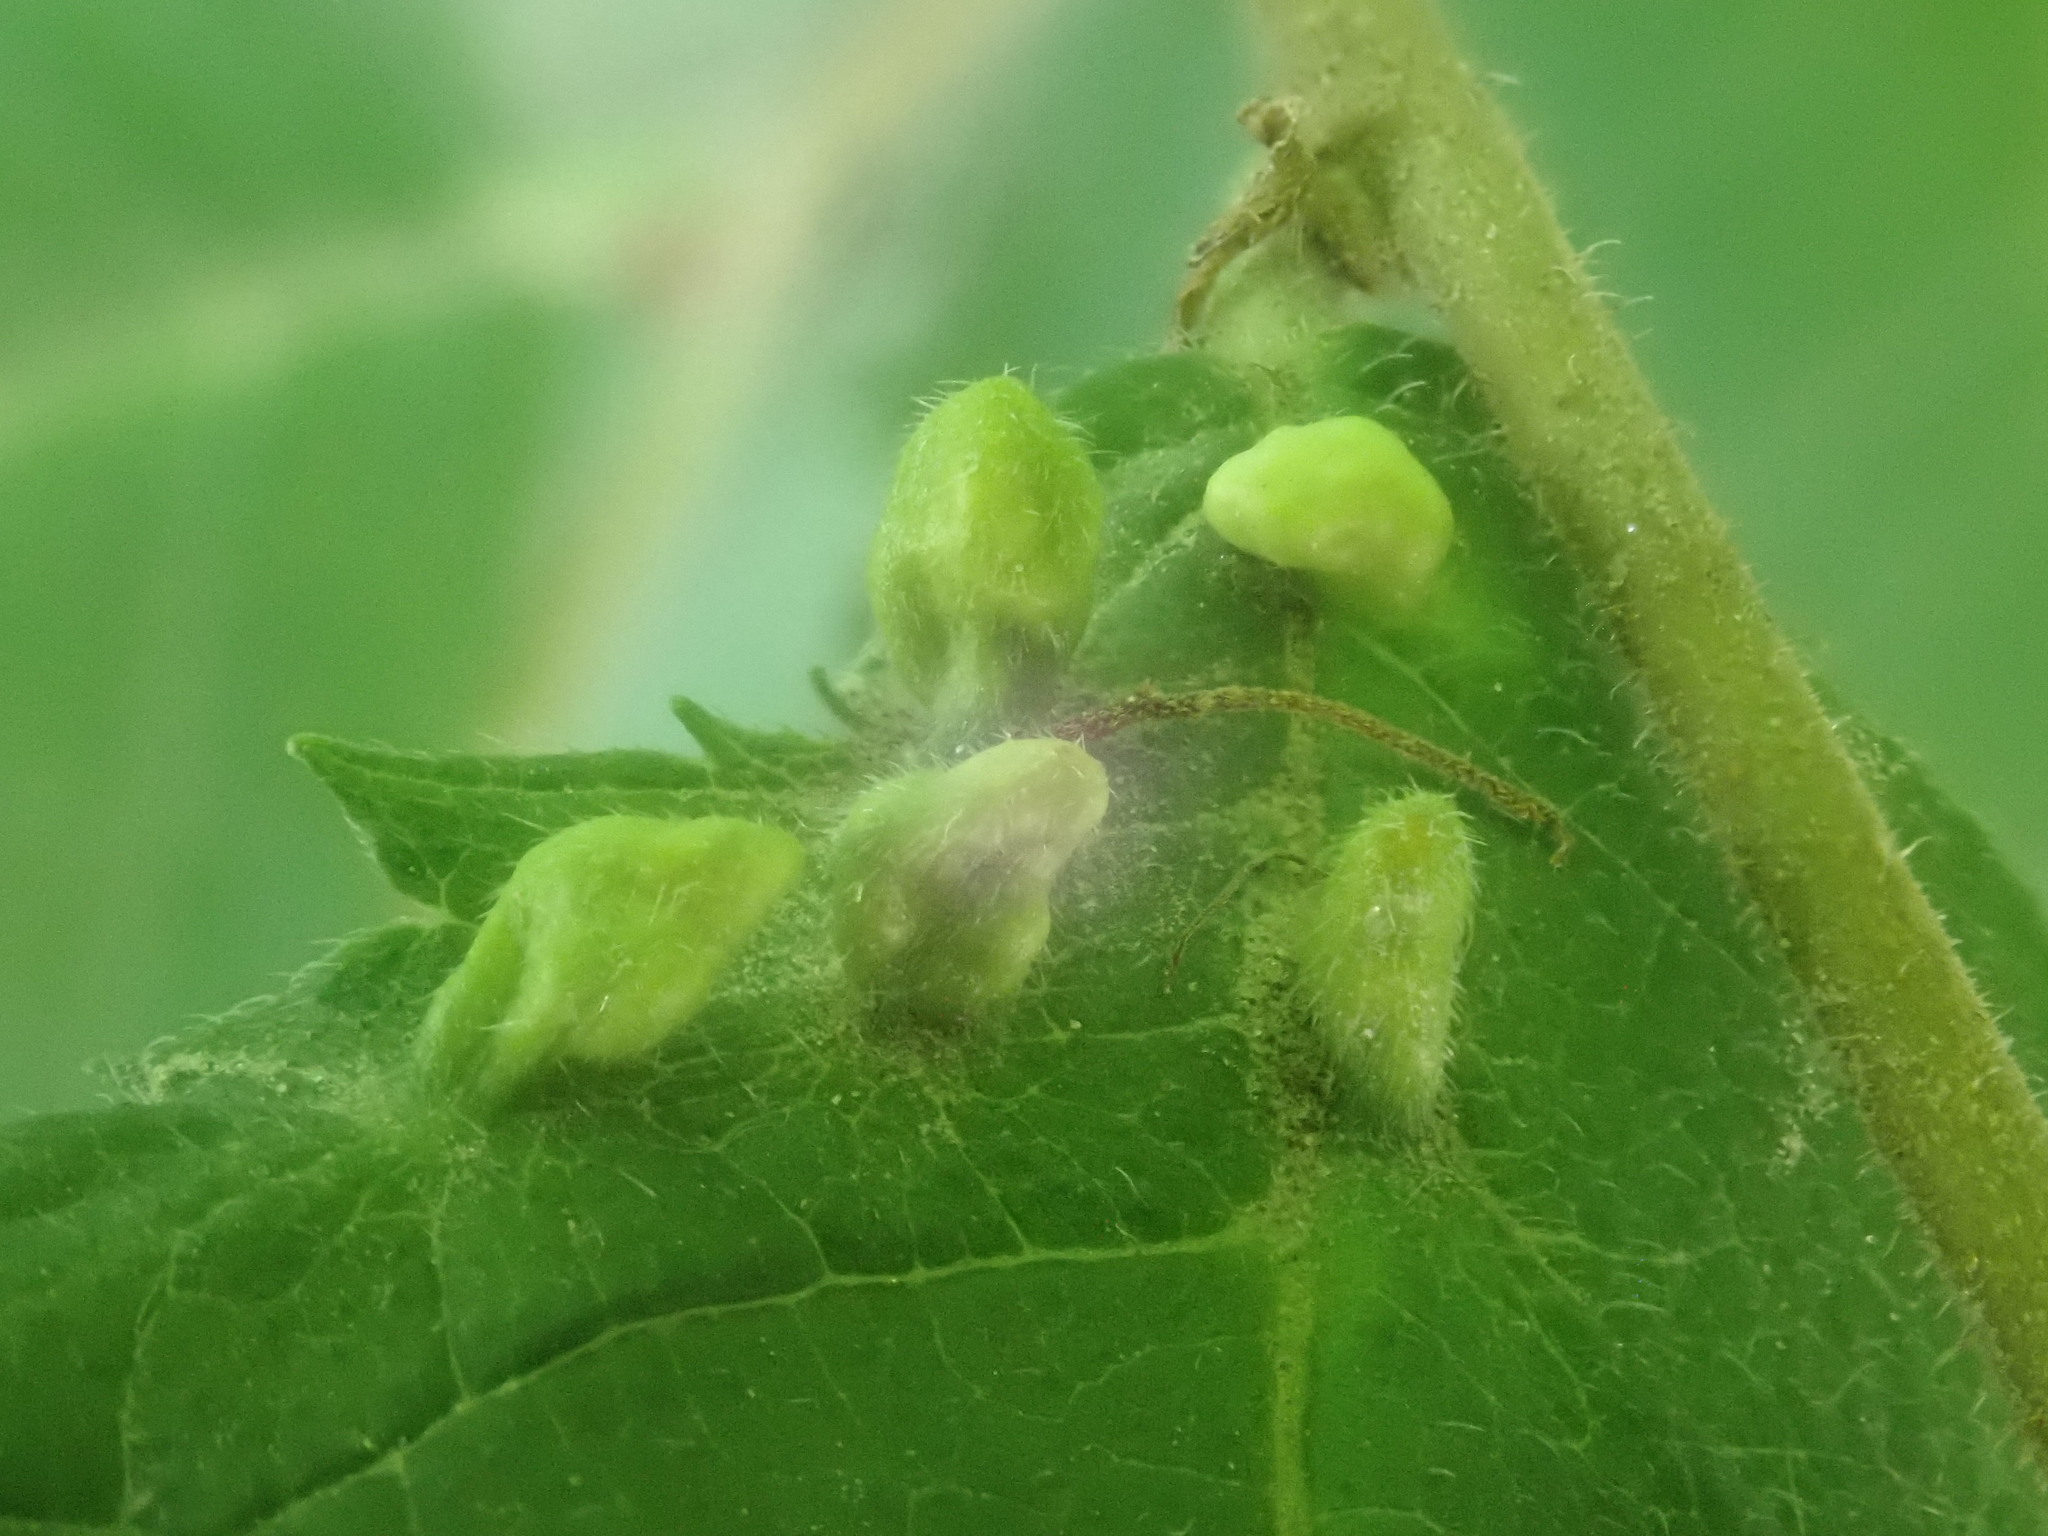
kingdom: Animalia
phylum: Arthropoda
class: Arachnida
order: Trombidiformes
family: Eriophyidae
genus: Aceria
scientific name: Aceria
